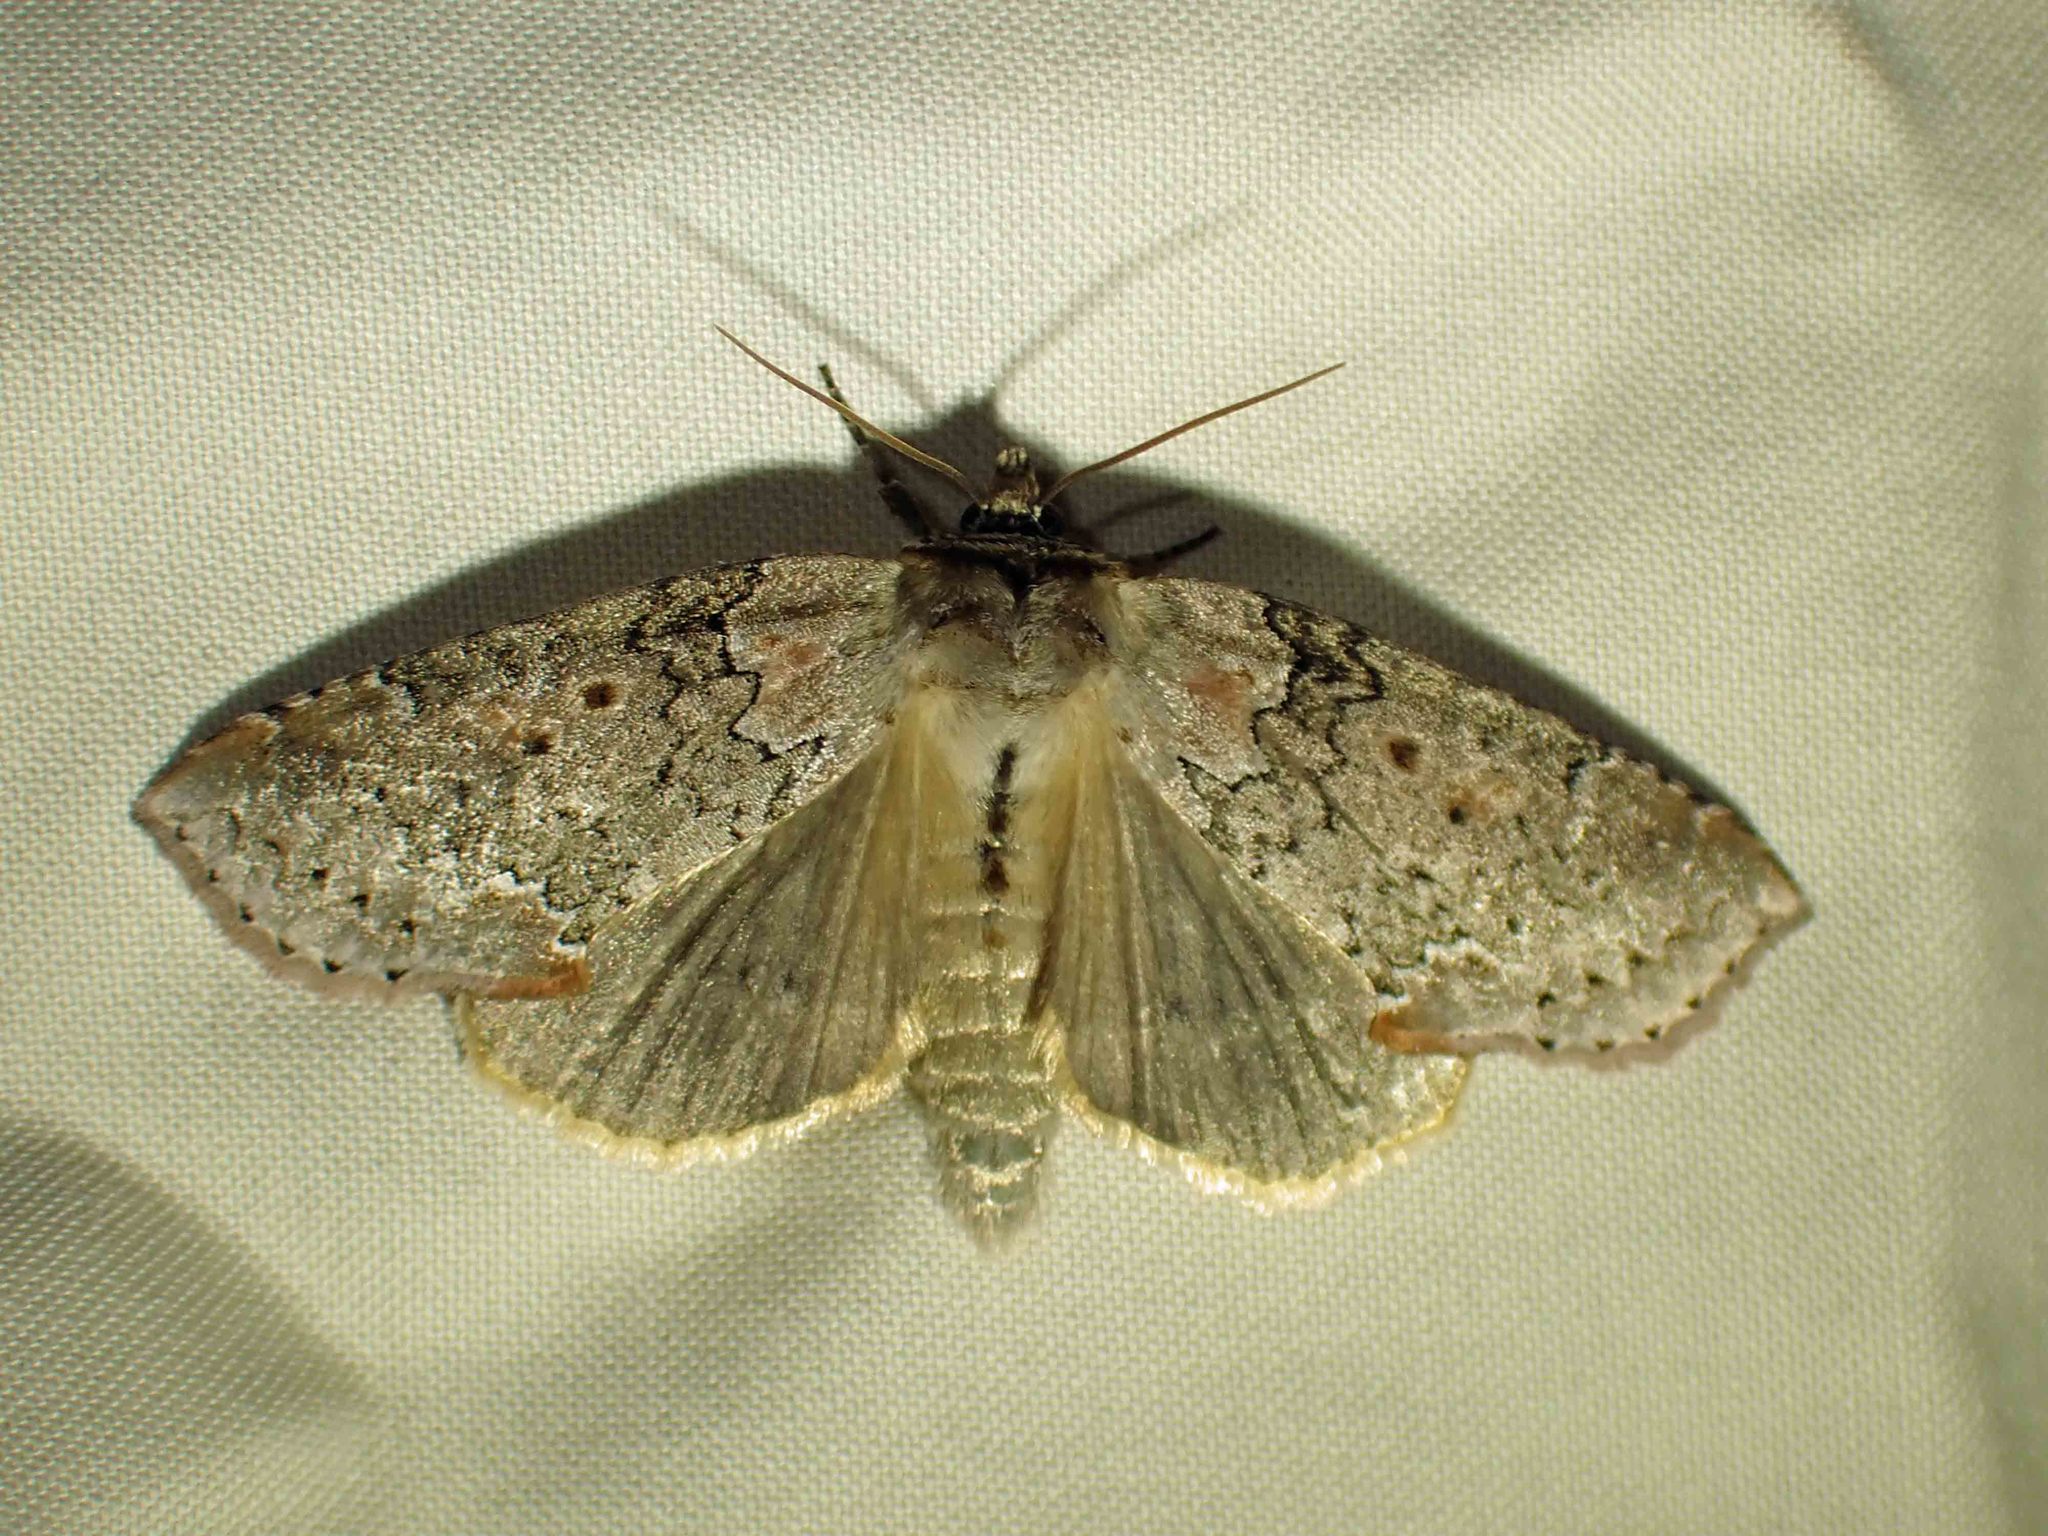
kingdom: Animalia
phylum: Arthropoda
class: Insecta
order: Lepidoptera
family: Drepanidae
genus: Pseudothyatira
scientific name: Pseudothyatira cymatophoroides
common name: Tufted thyatirid moth
